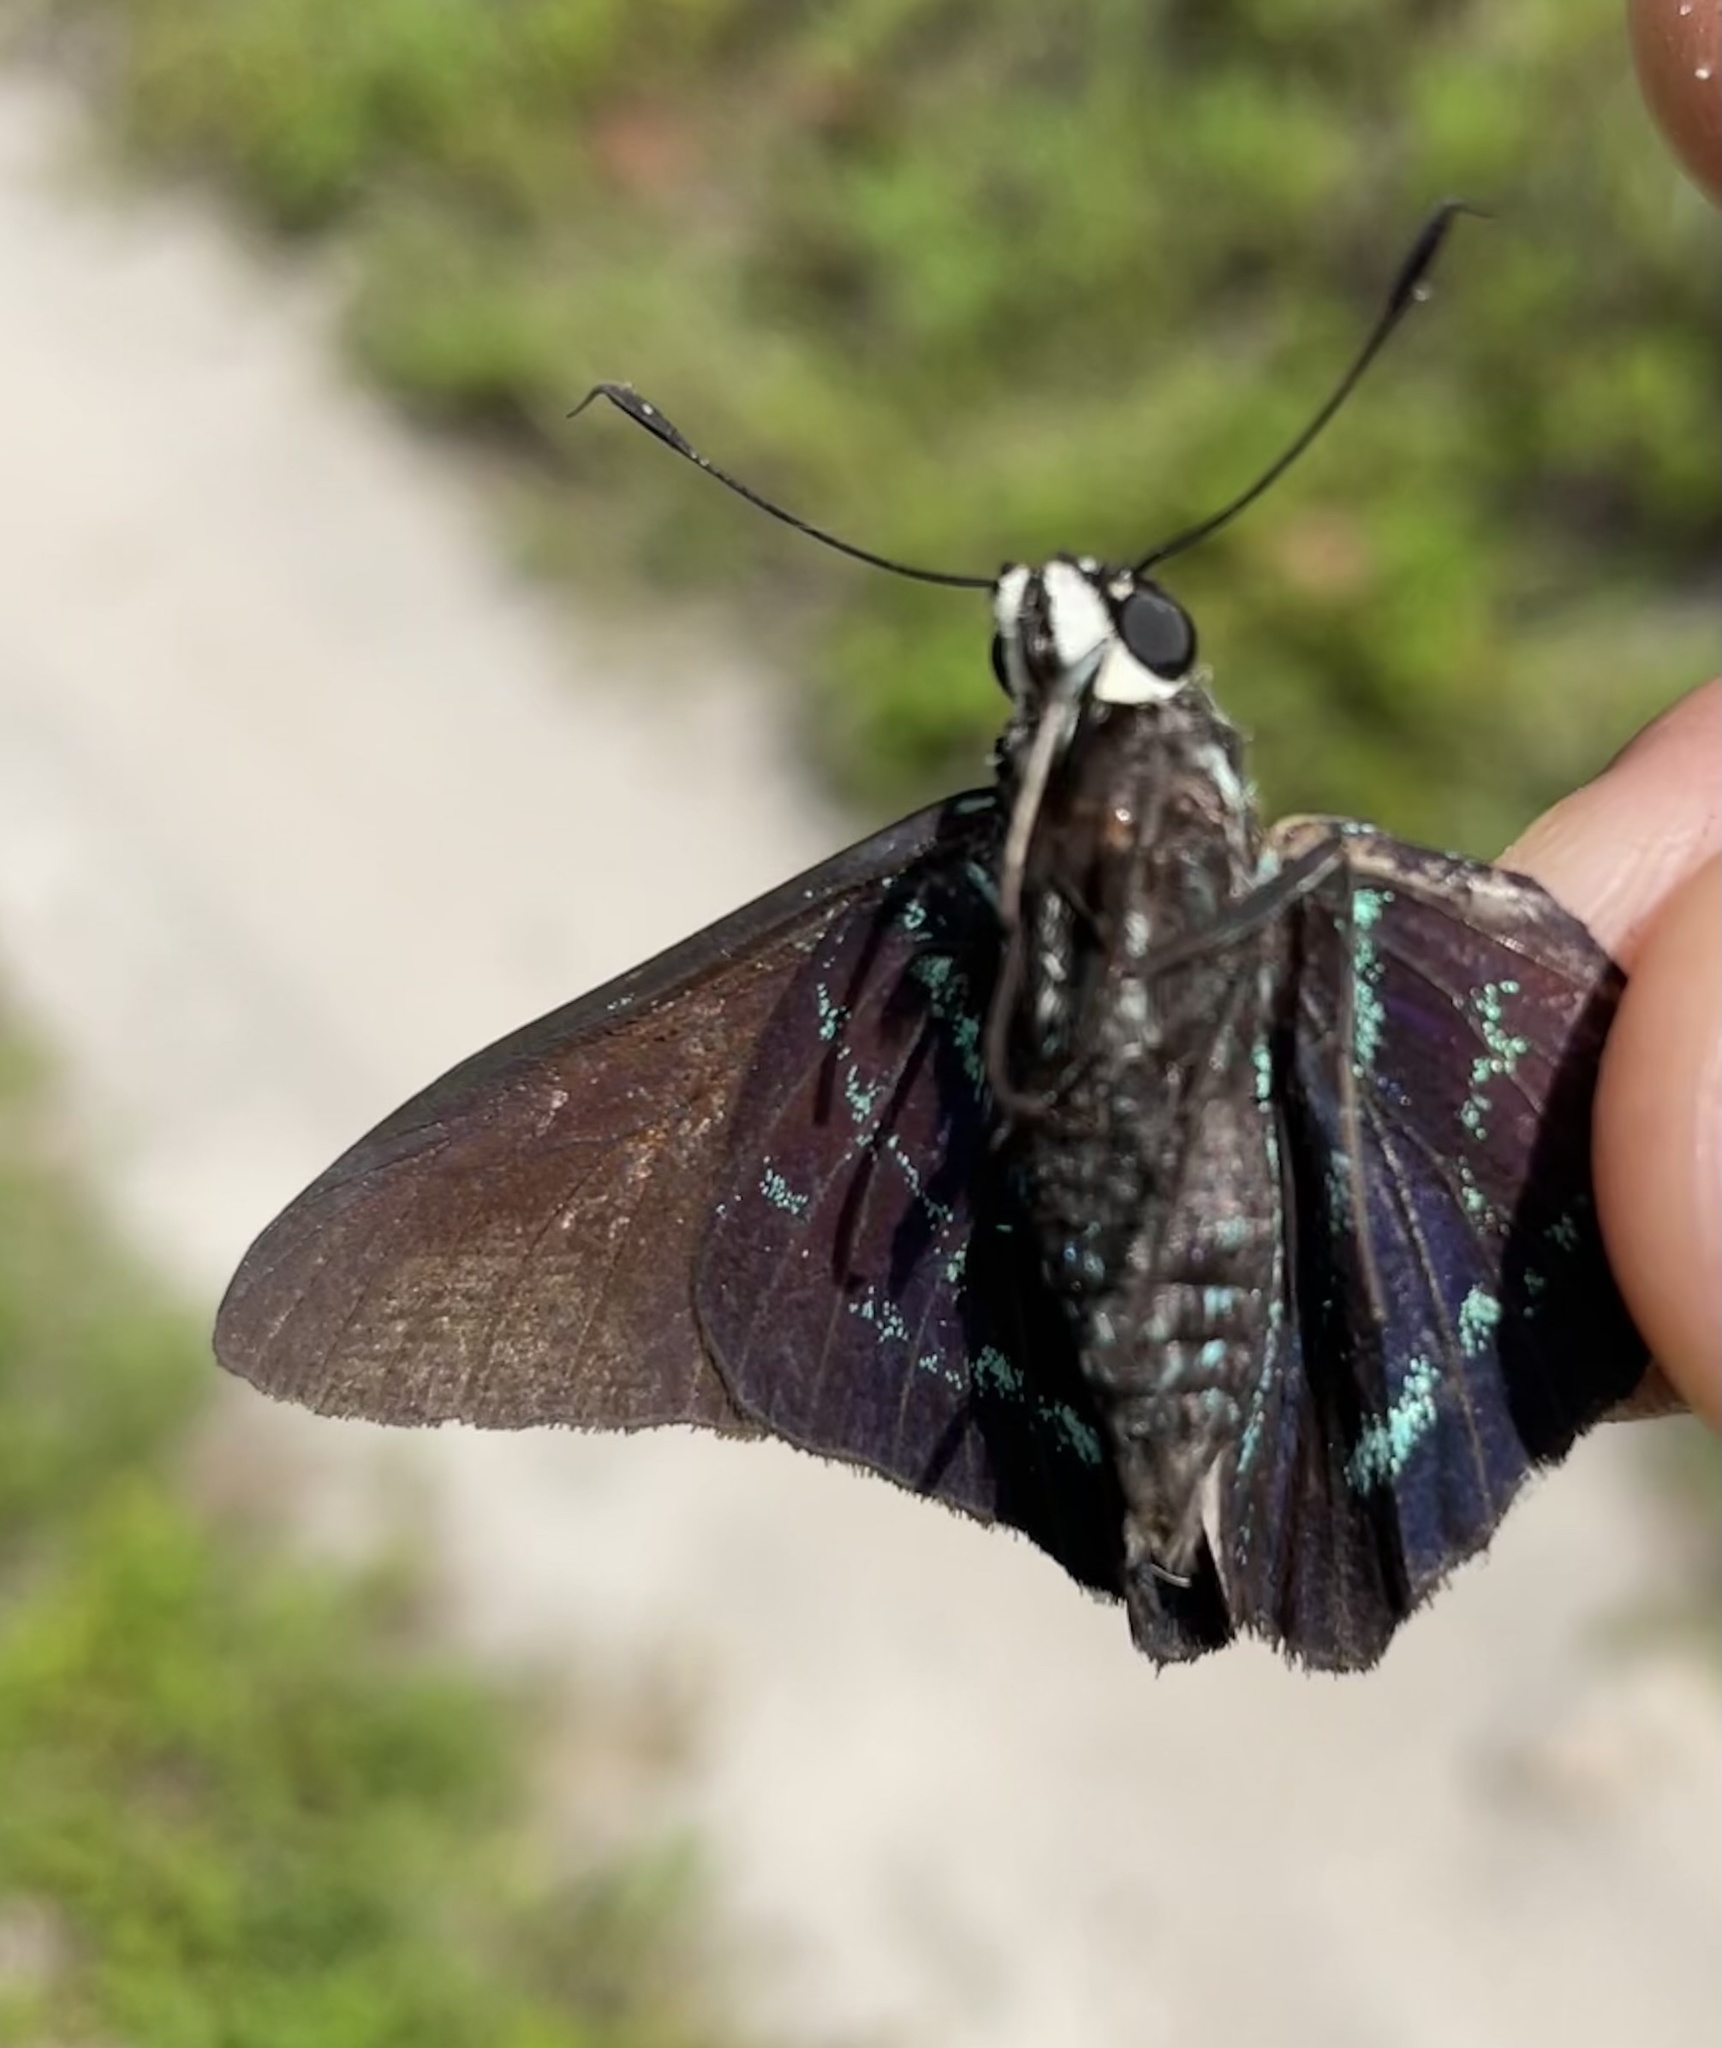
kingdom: Animalia
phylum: Arthropoda
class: Insecta
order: Lepidoptera
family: Hesperiidae
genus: Phocides
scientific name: Phocides pigmalion
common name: Mangrove skipper
